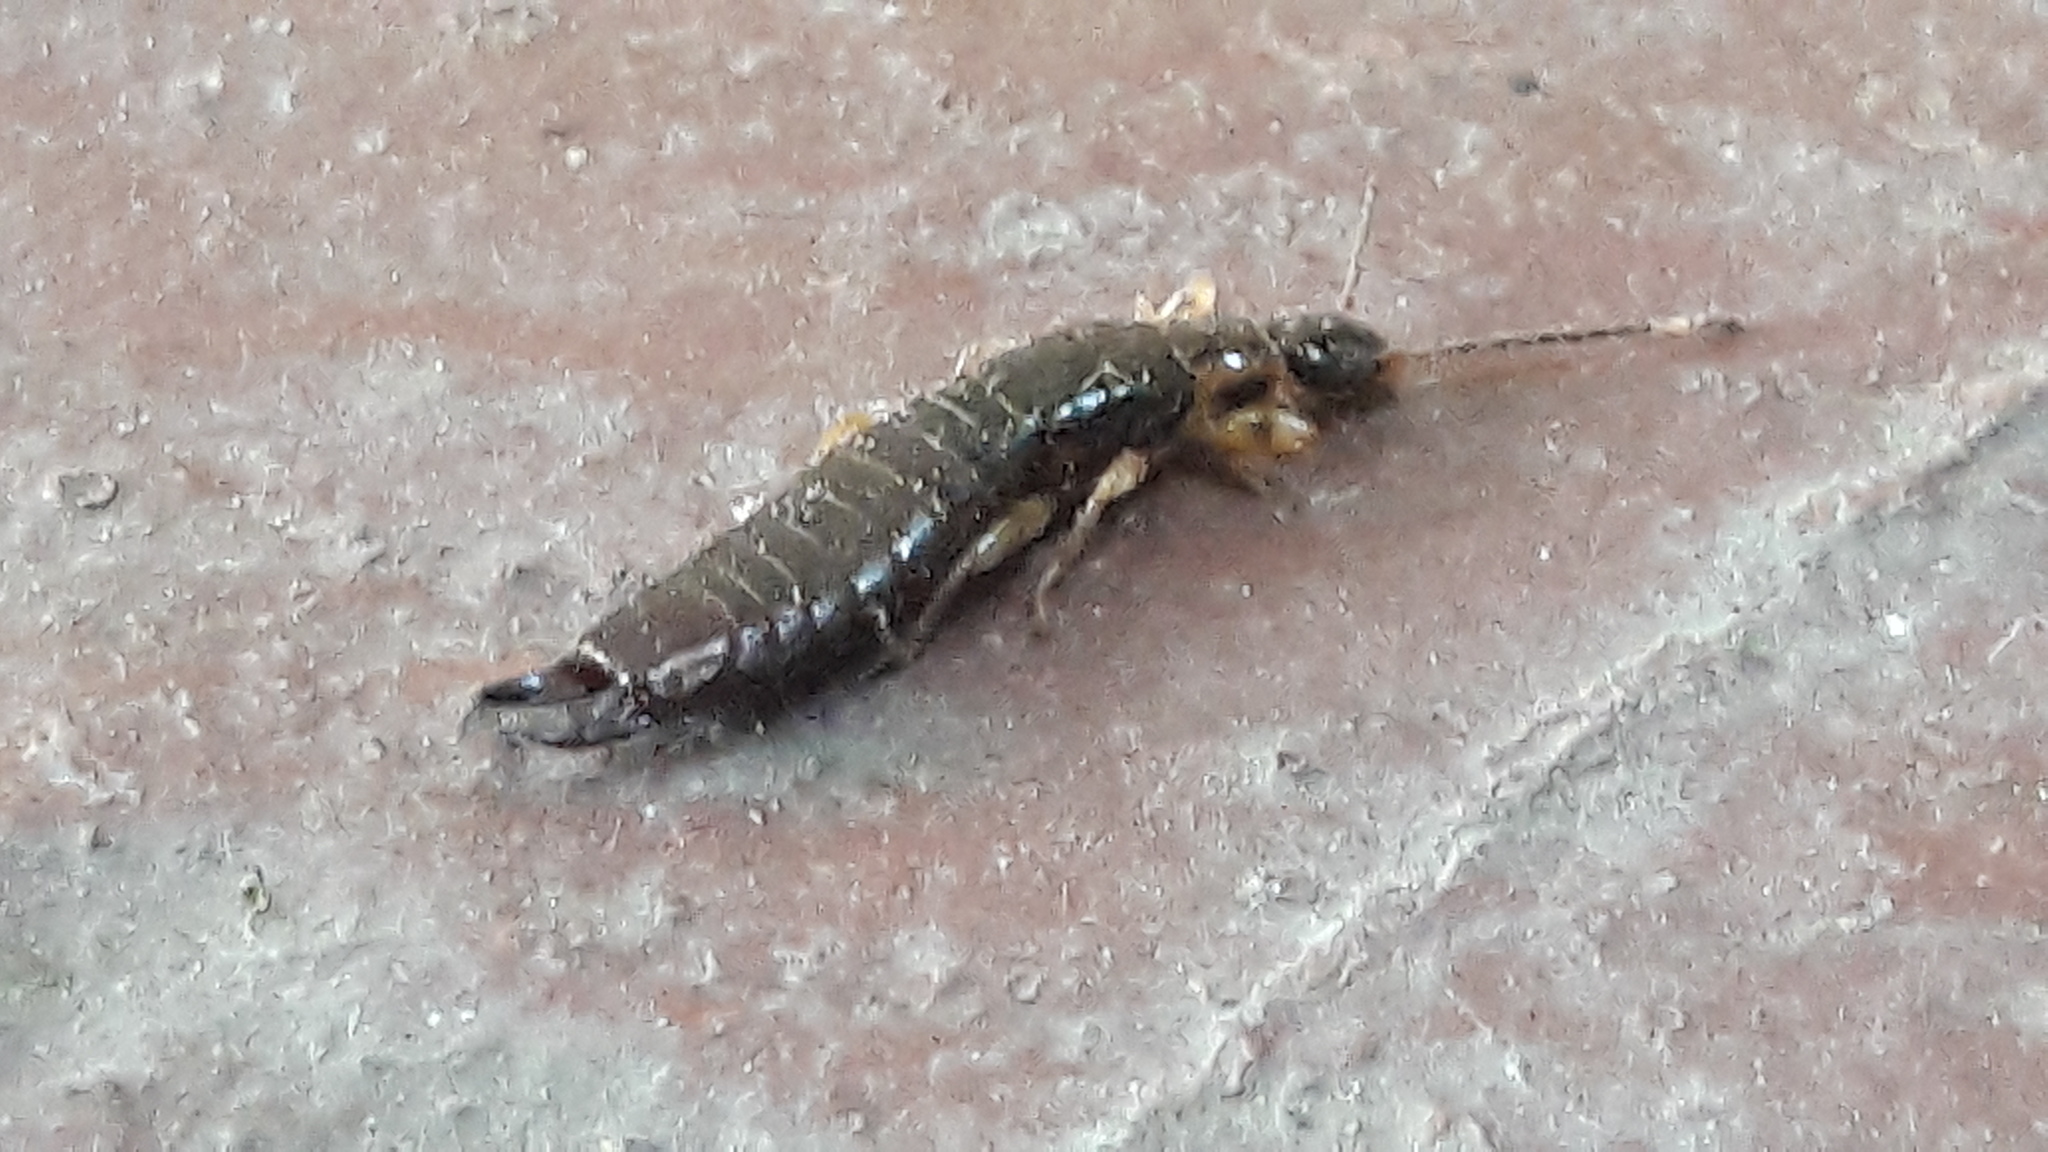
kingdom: Animalia
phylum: Arthropoda
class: Insecta
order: Dermaptera
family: Anisolabididae
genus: Euborellia
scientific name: Euborellia annulipes
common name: Ringlegged earwig
